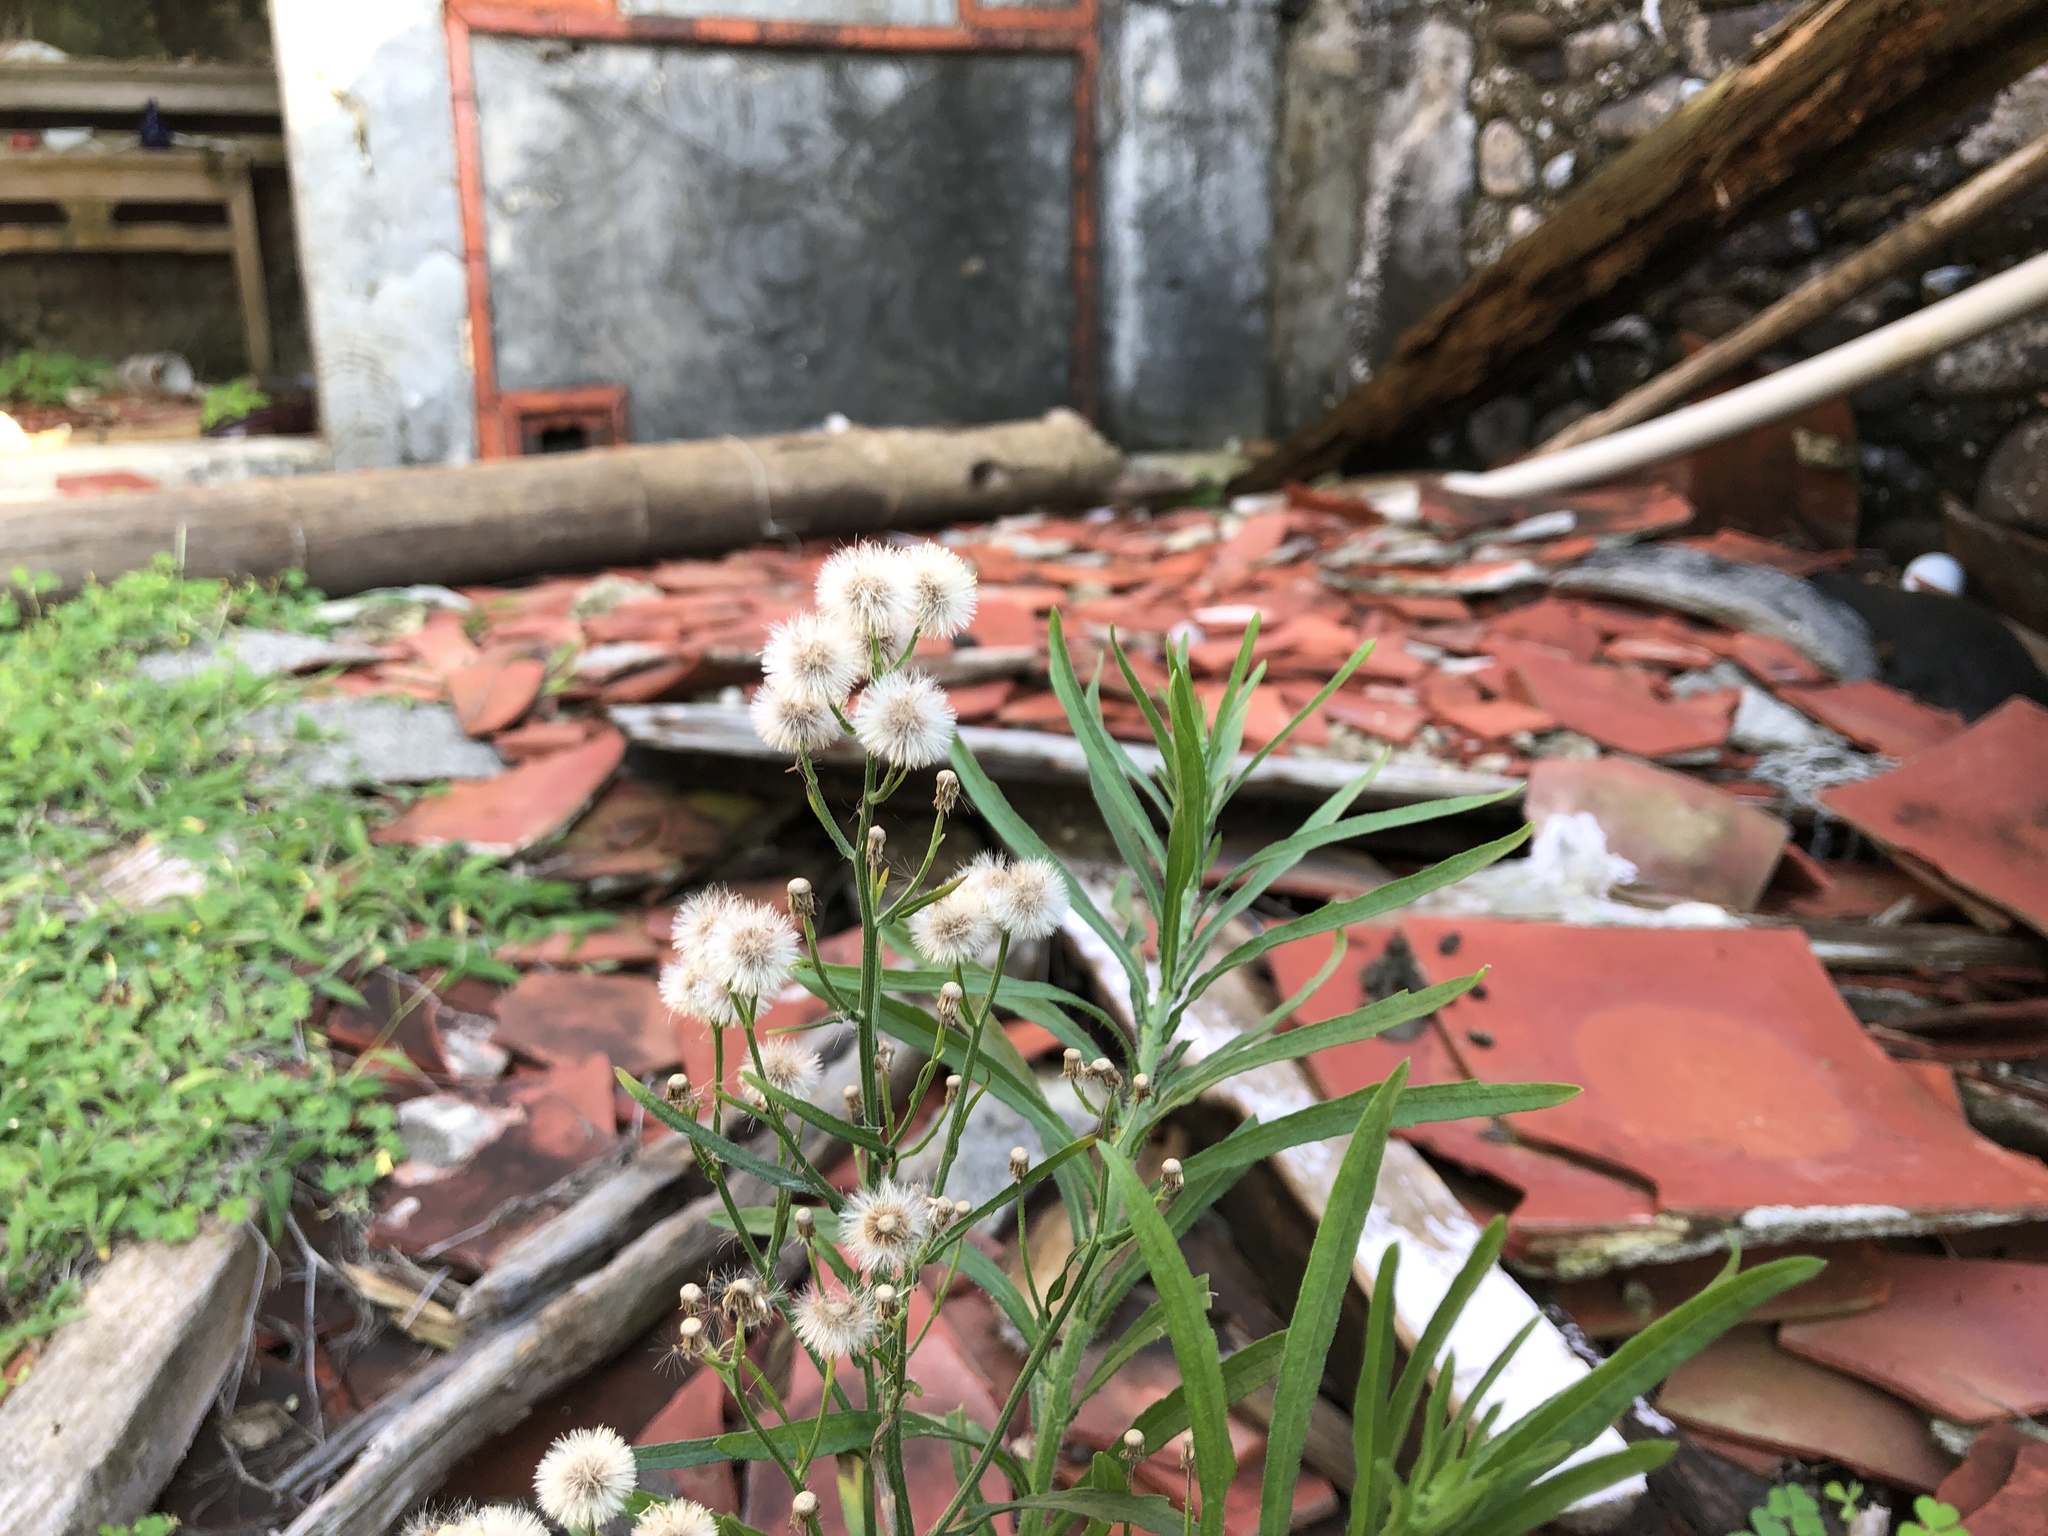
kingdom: Plantae
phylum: Tracheophyta
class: Magnoliopsida
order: Asterales
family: Asteraceae
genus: Erigeron
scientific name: Erigeron bonariensis
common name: Argentine fleabane
